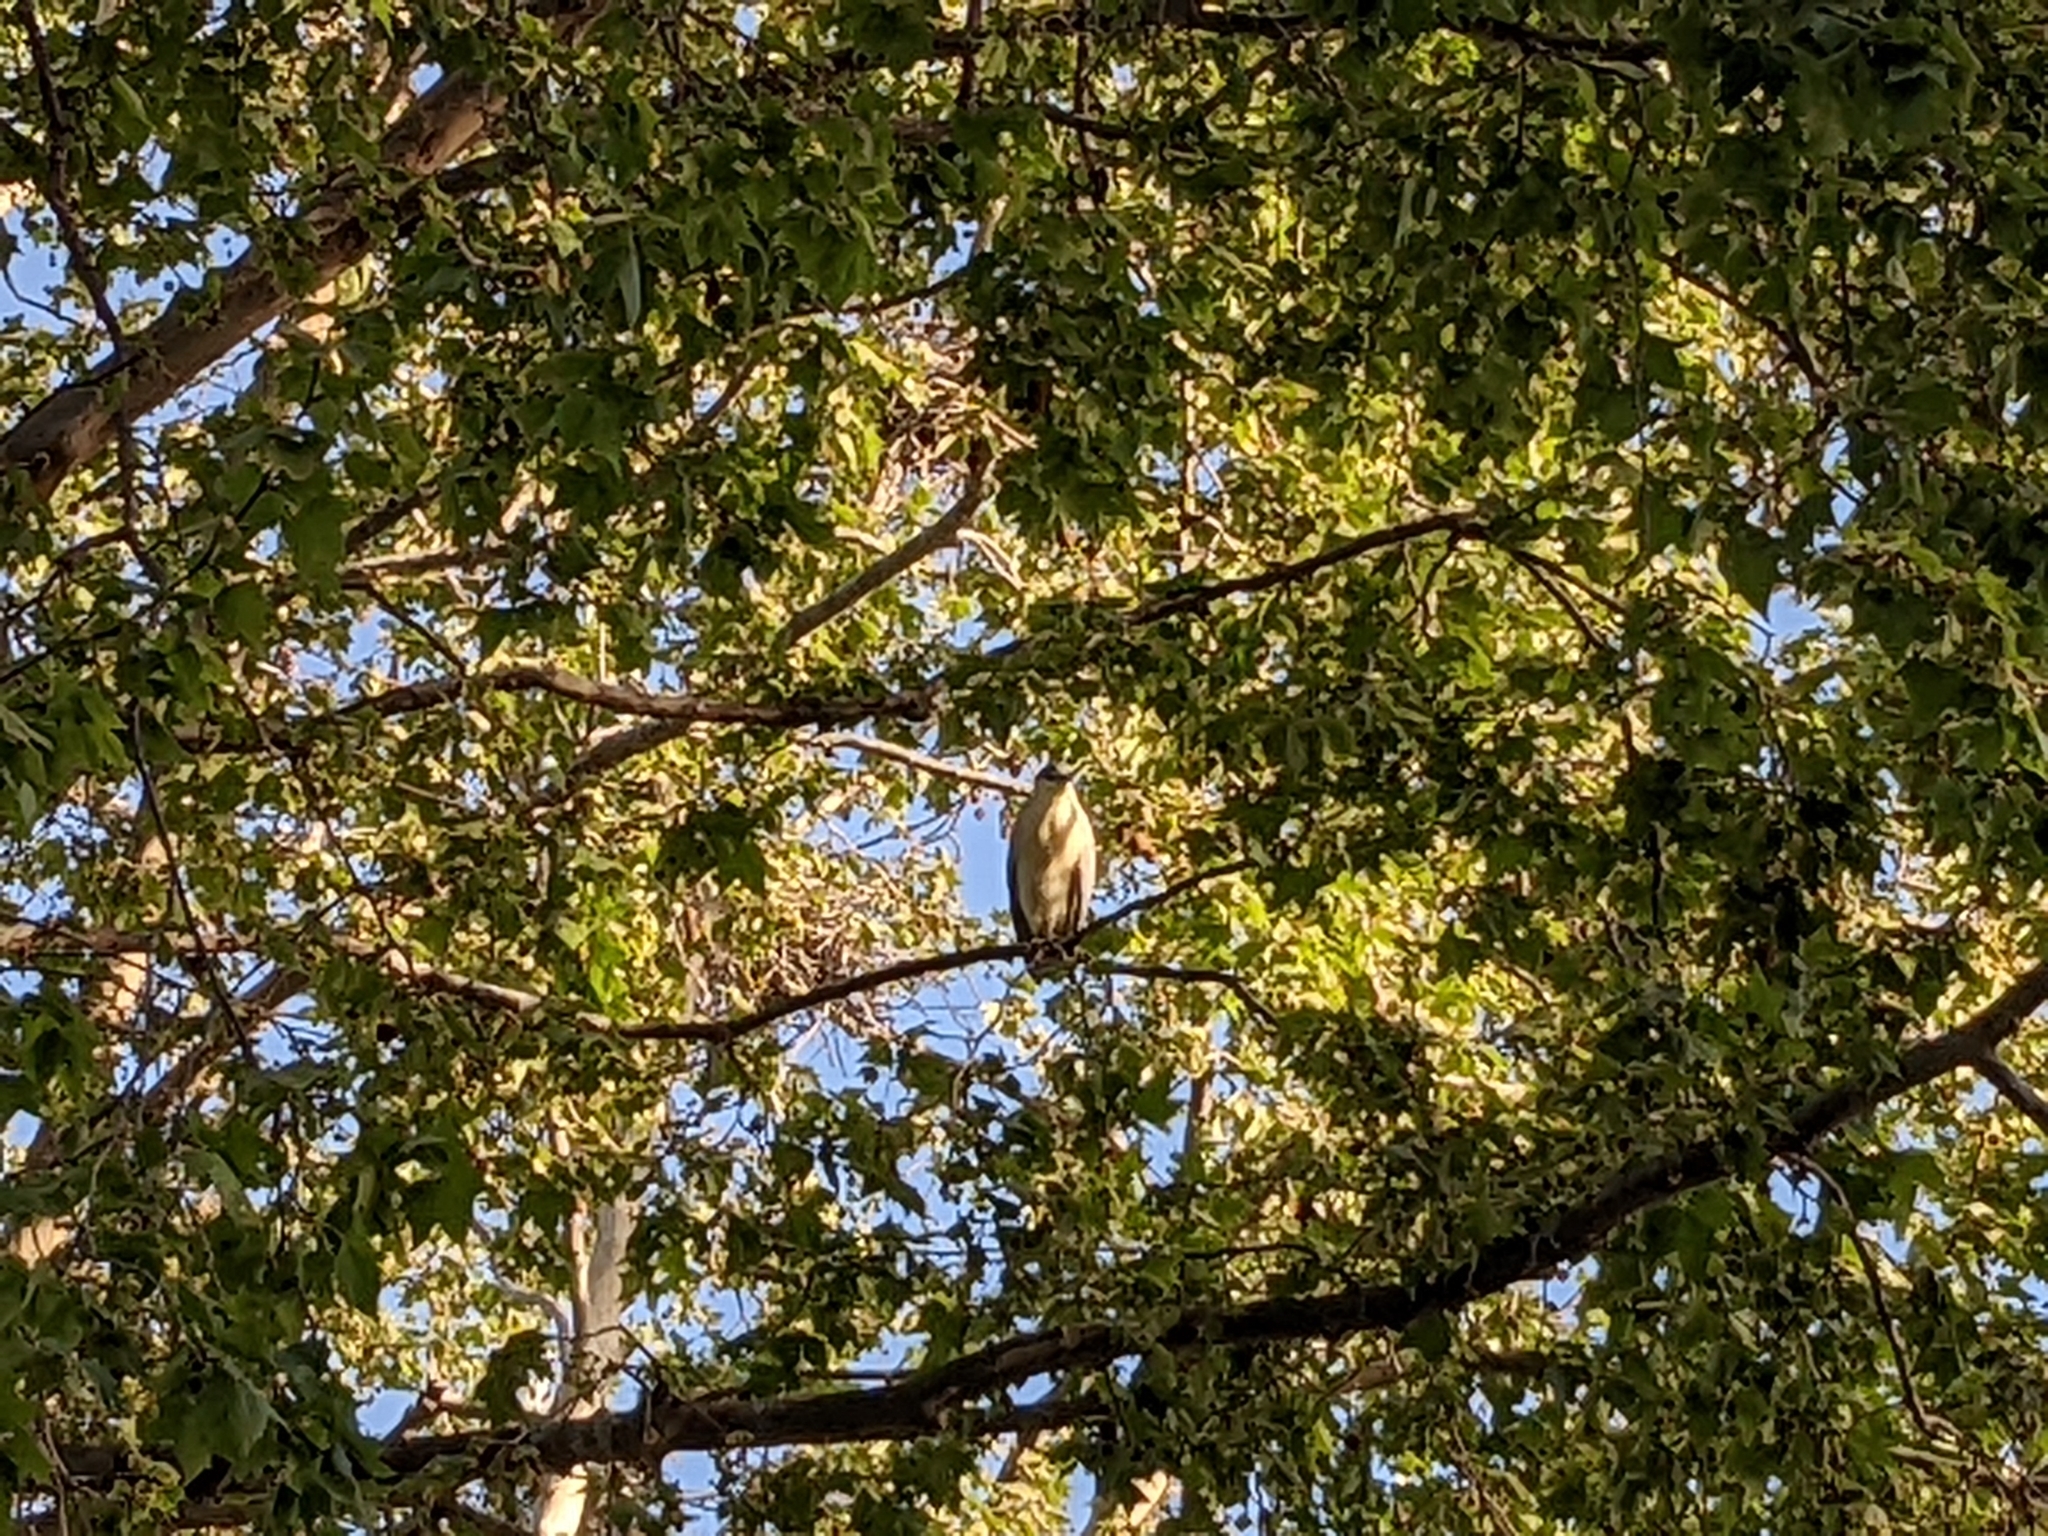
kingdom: Animalia
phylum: Chordata
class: Aves
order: Pelecaniformes
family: Ardeidae
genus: Nycticorax
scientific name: Nycticorax nycticorax
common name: Black-crowned night heron
